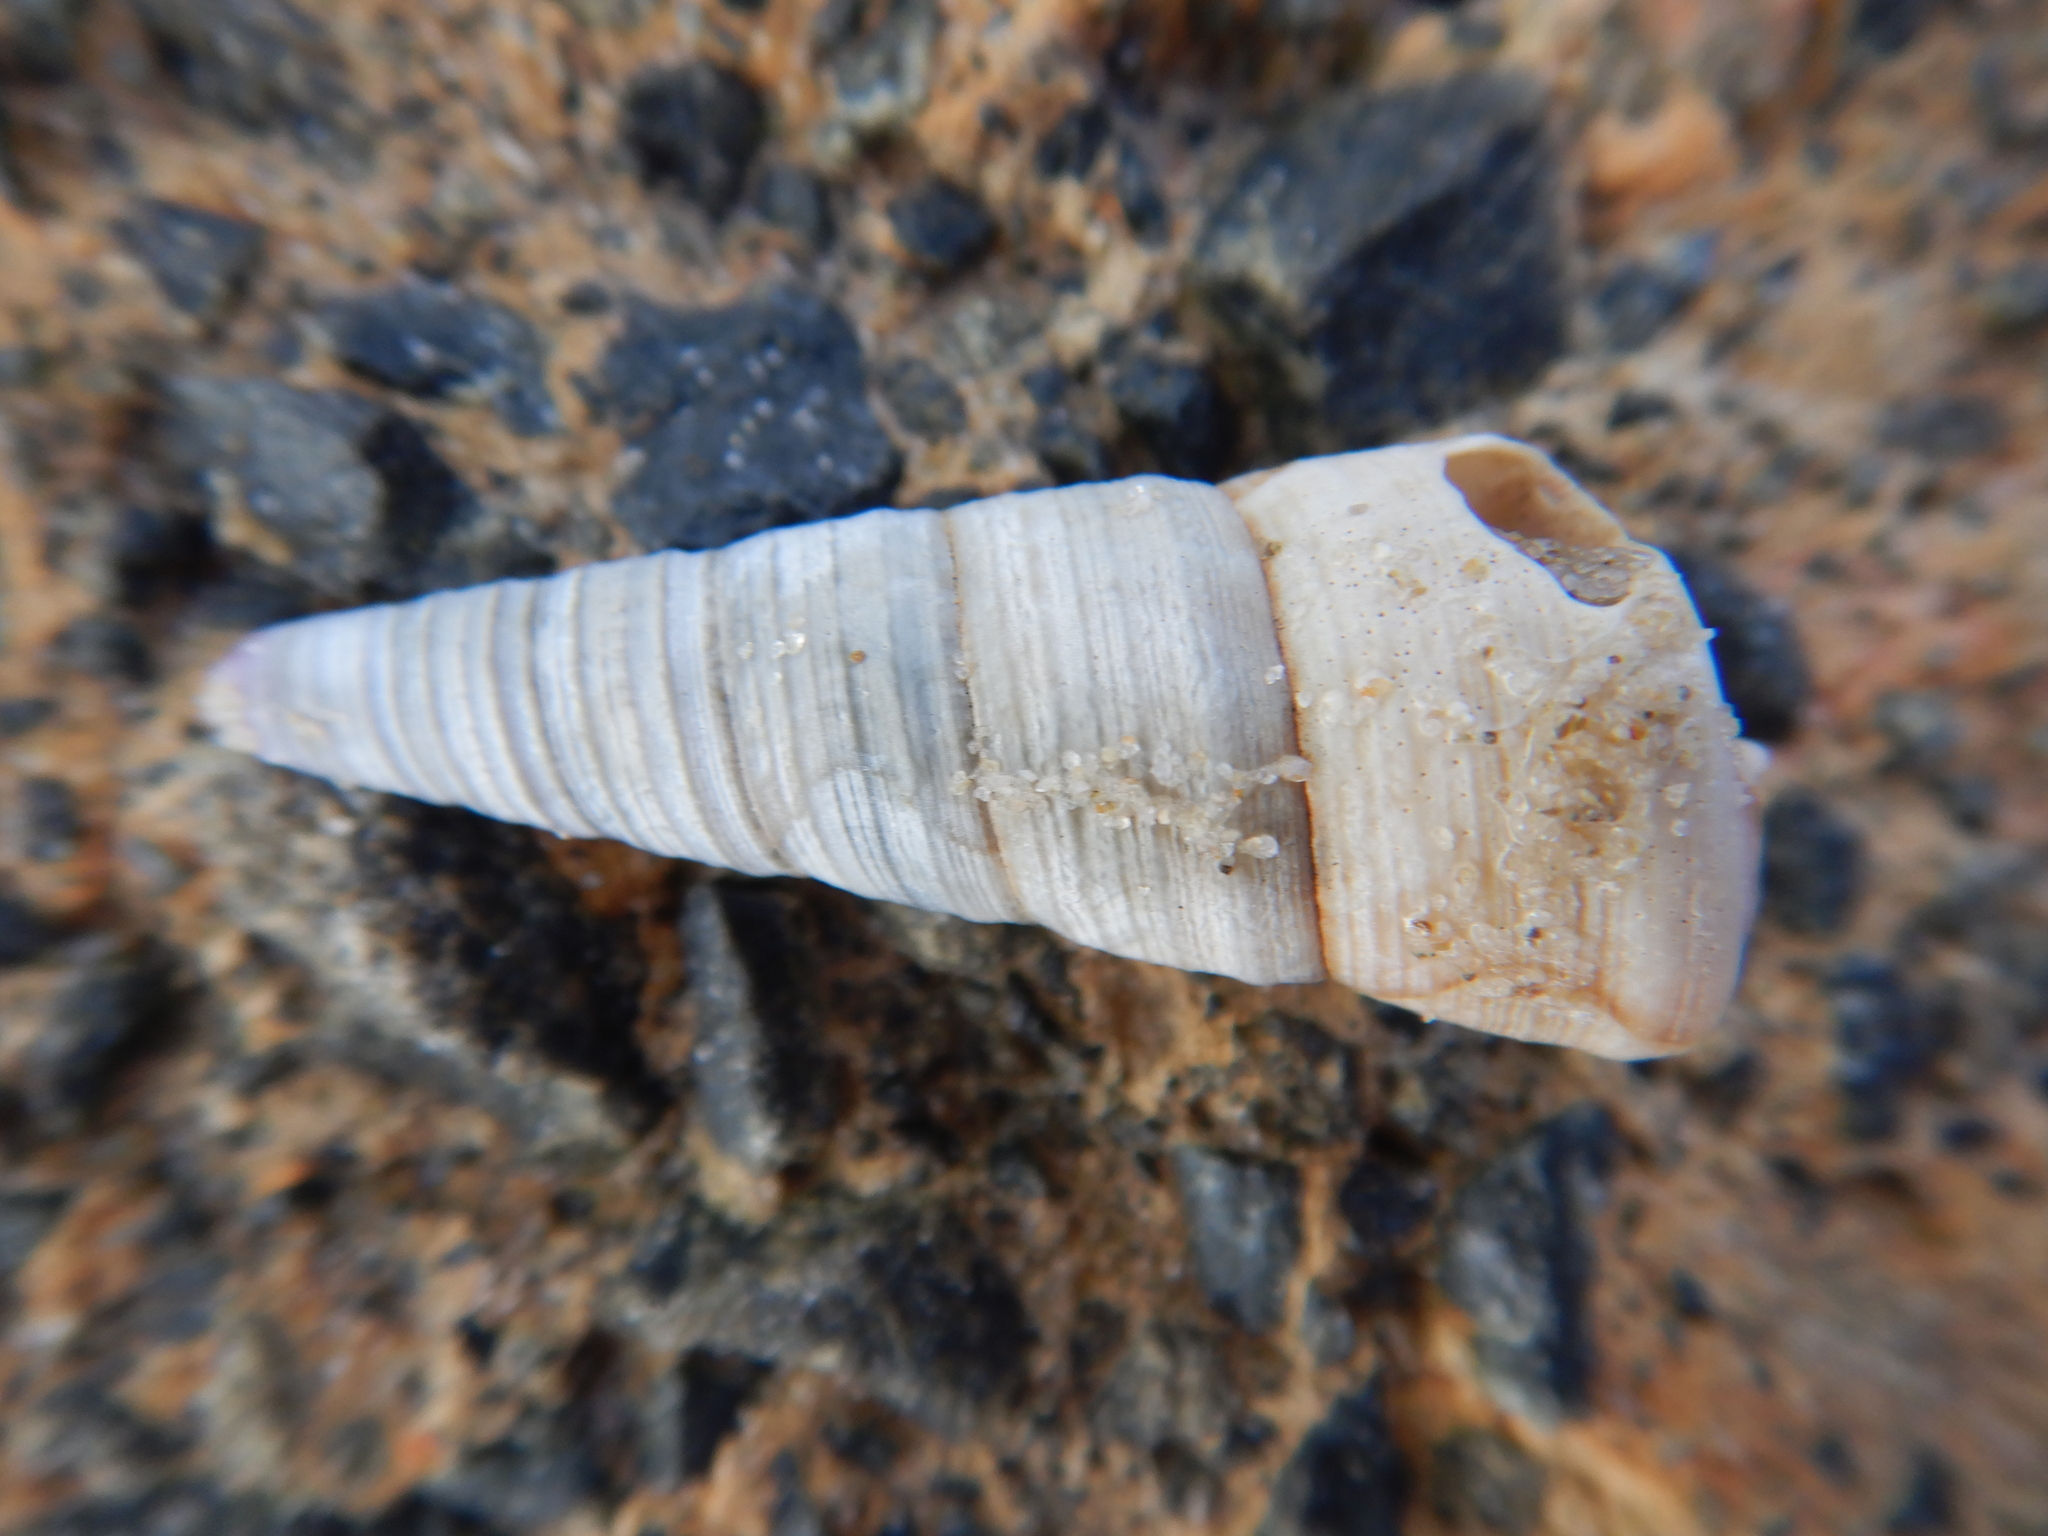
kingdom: Animalia
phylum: Mollusca
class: Gastropoda
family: Turritellidae
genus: Maoricolpus
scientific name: Maoricolpus roseus
